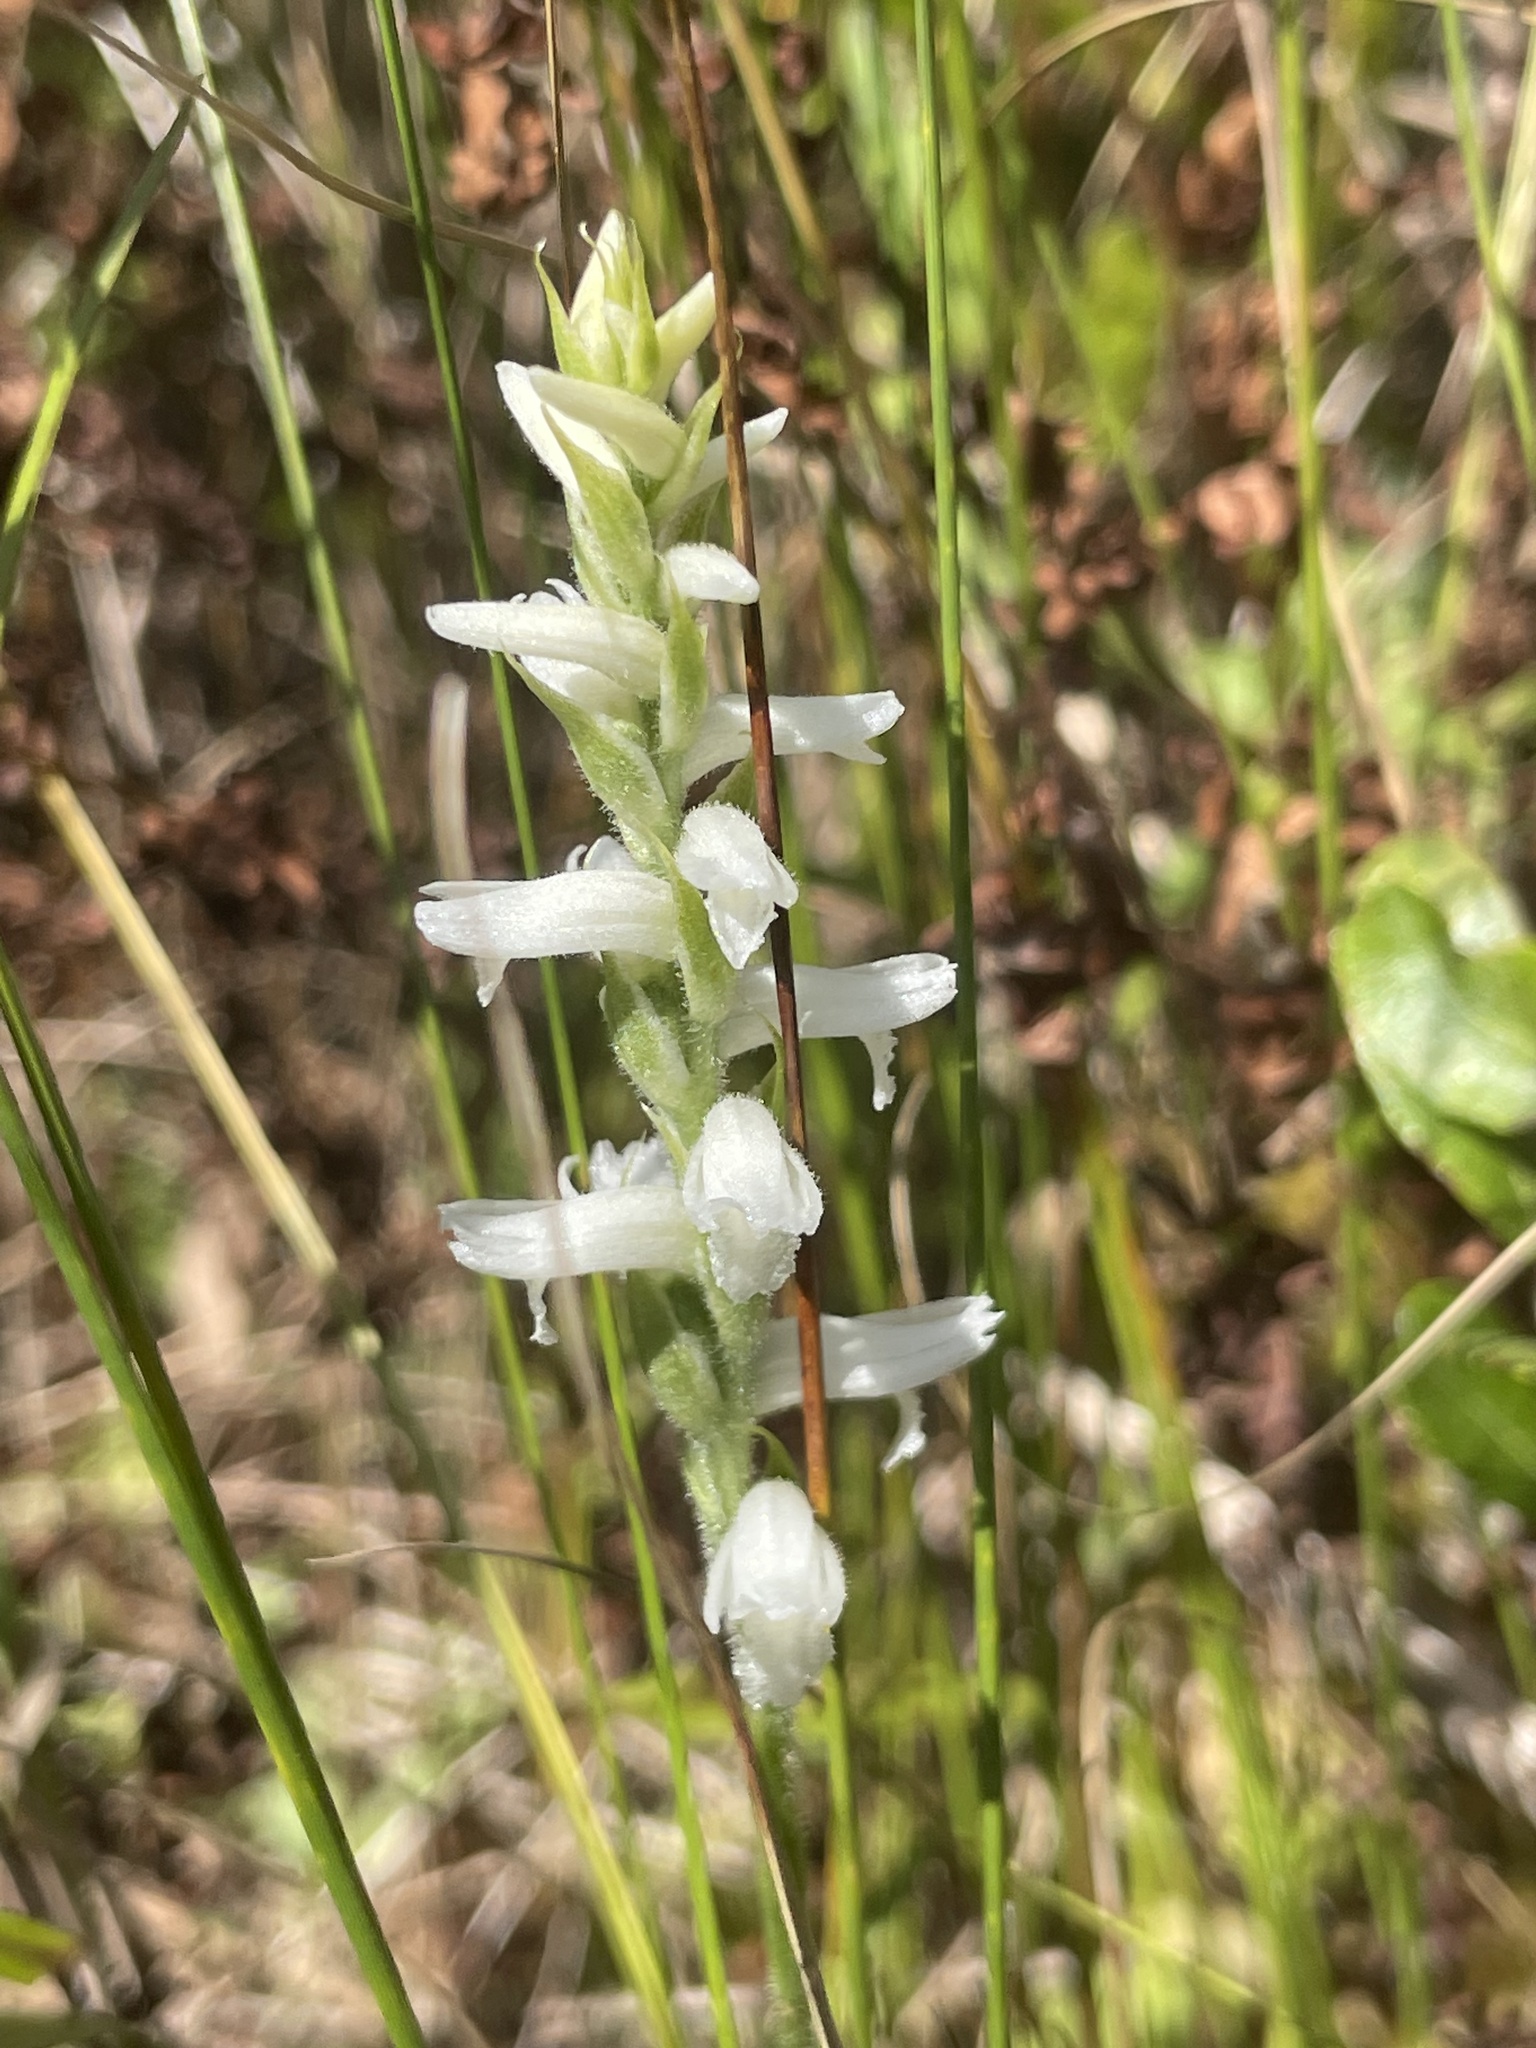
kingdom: Plantae
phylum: Tracheophyta
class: Liliopsida
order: Asparagales
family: Orchidaceae
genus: Spiranthes
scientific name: Spiranthes incurva
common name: Sphinx ladies'-tresses
